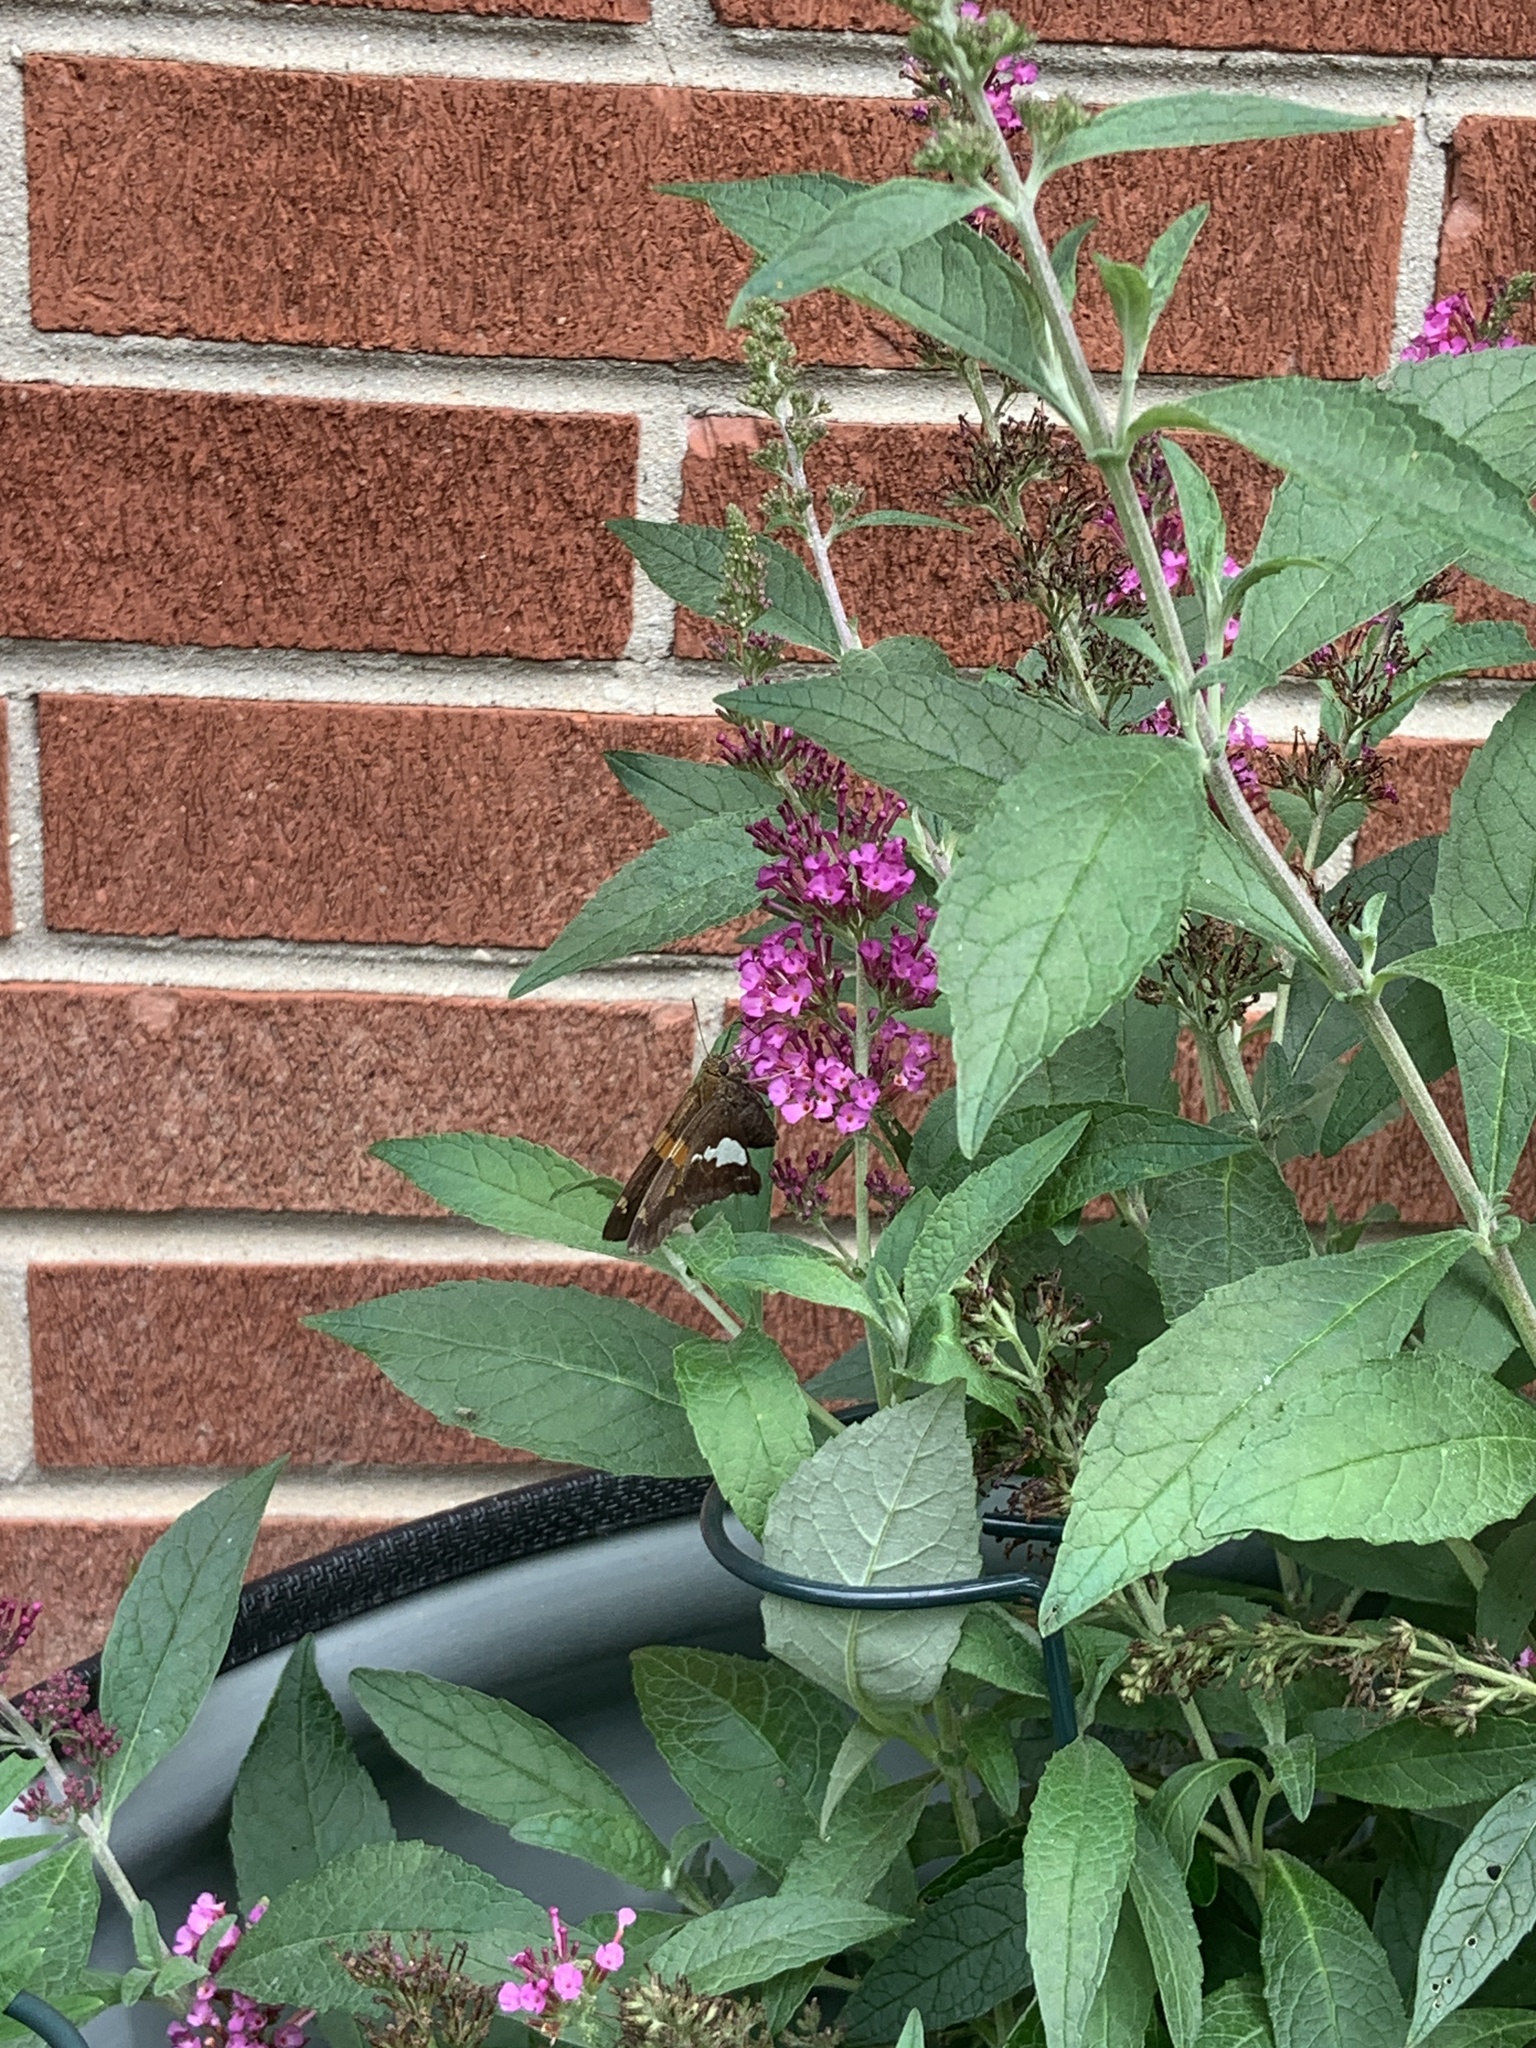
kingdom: Animalia
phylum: Arthropoda
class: Insecta
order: Lepidoptera
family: Hesperiidae
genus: Epargyreus
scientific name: Epargyreus clarus
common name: Silver-spotted skipper
